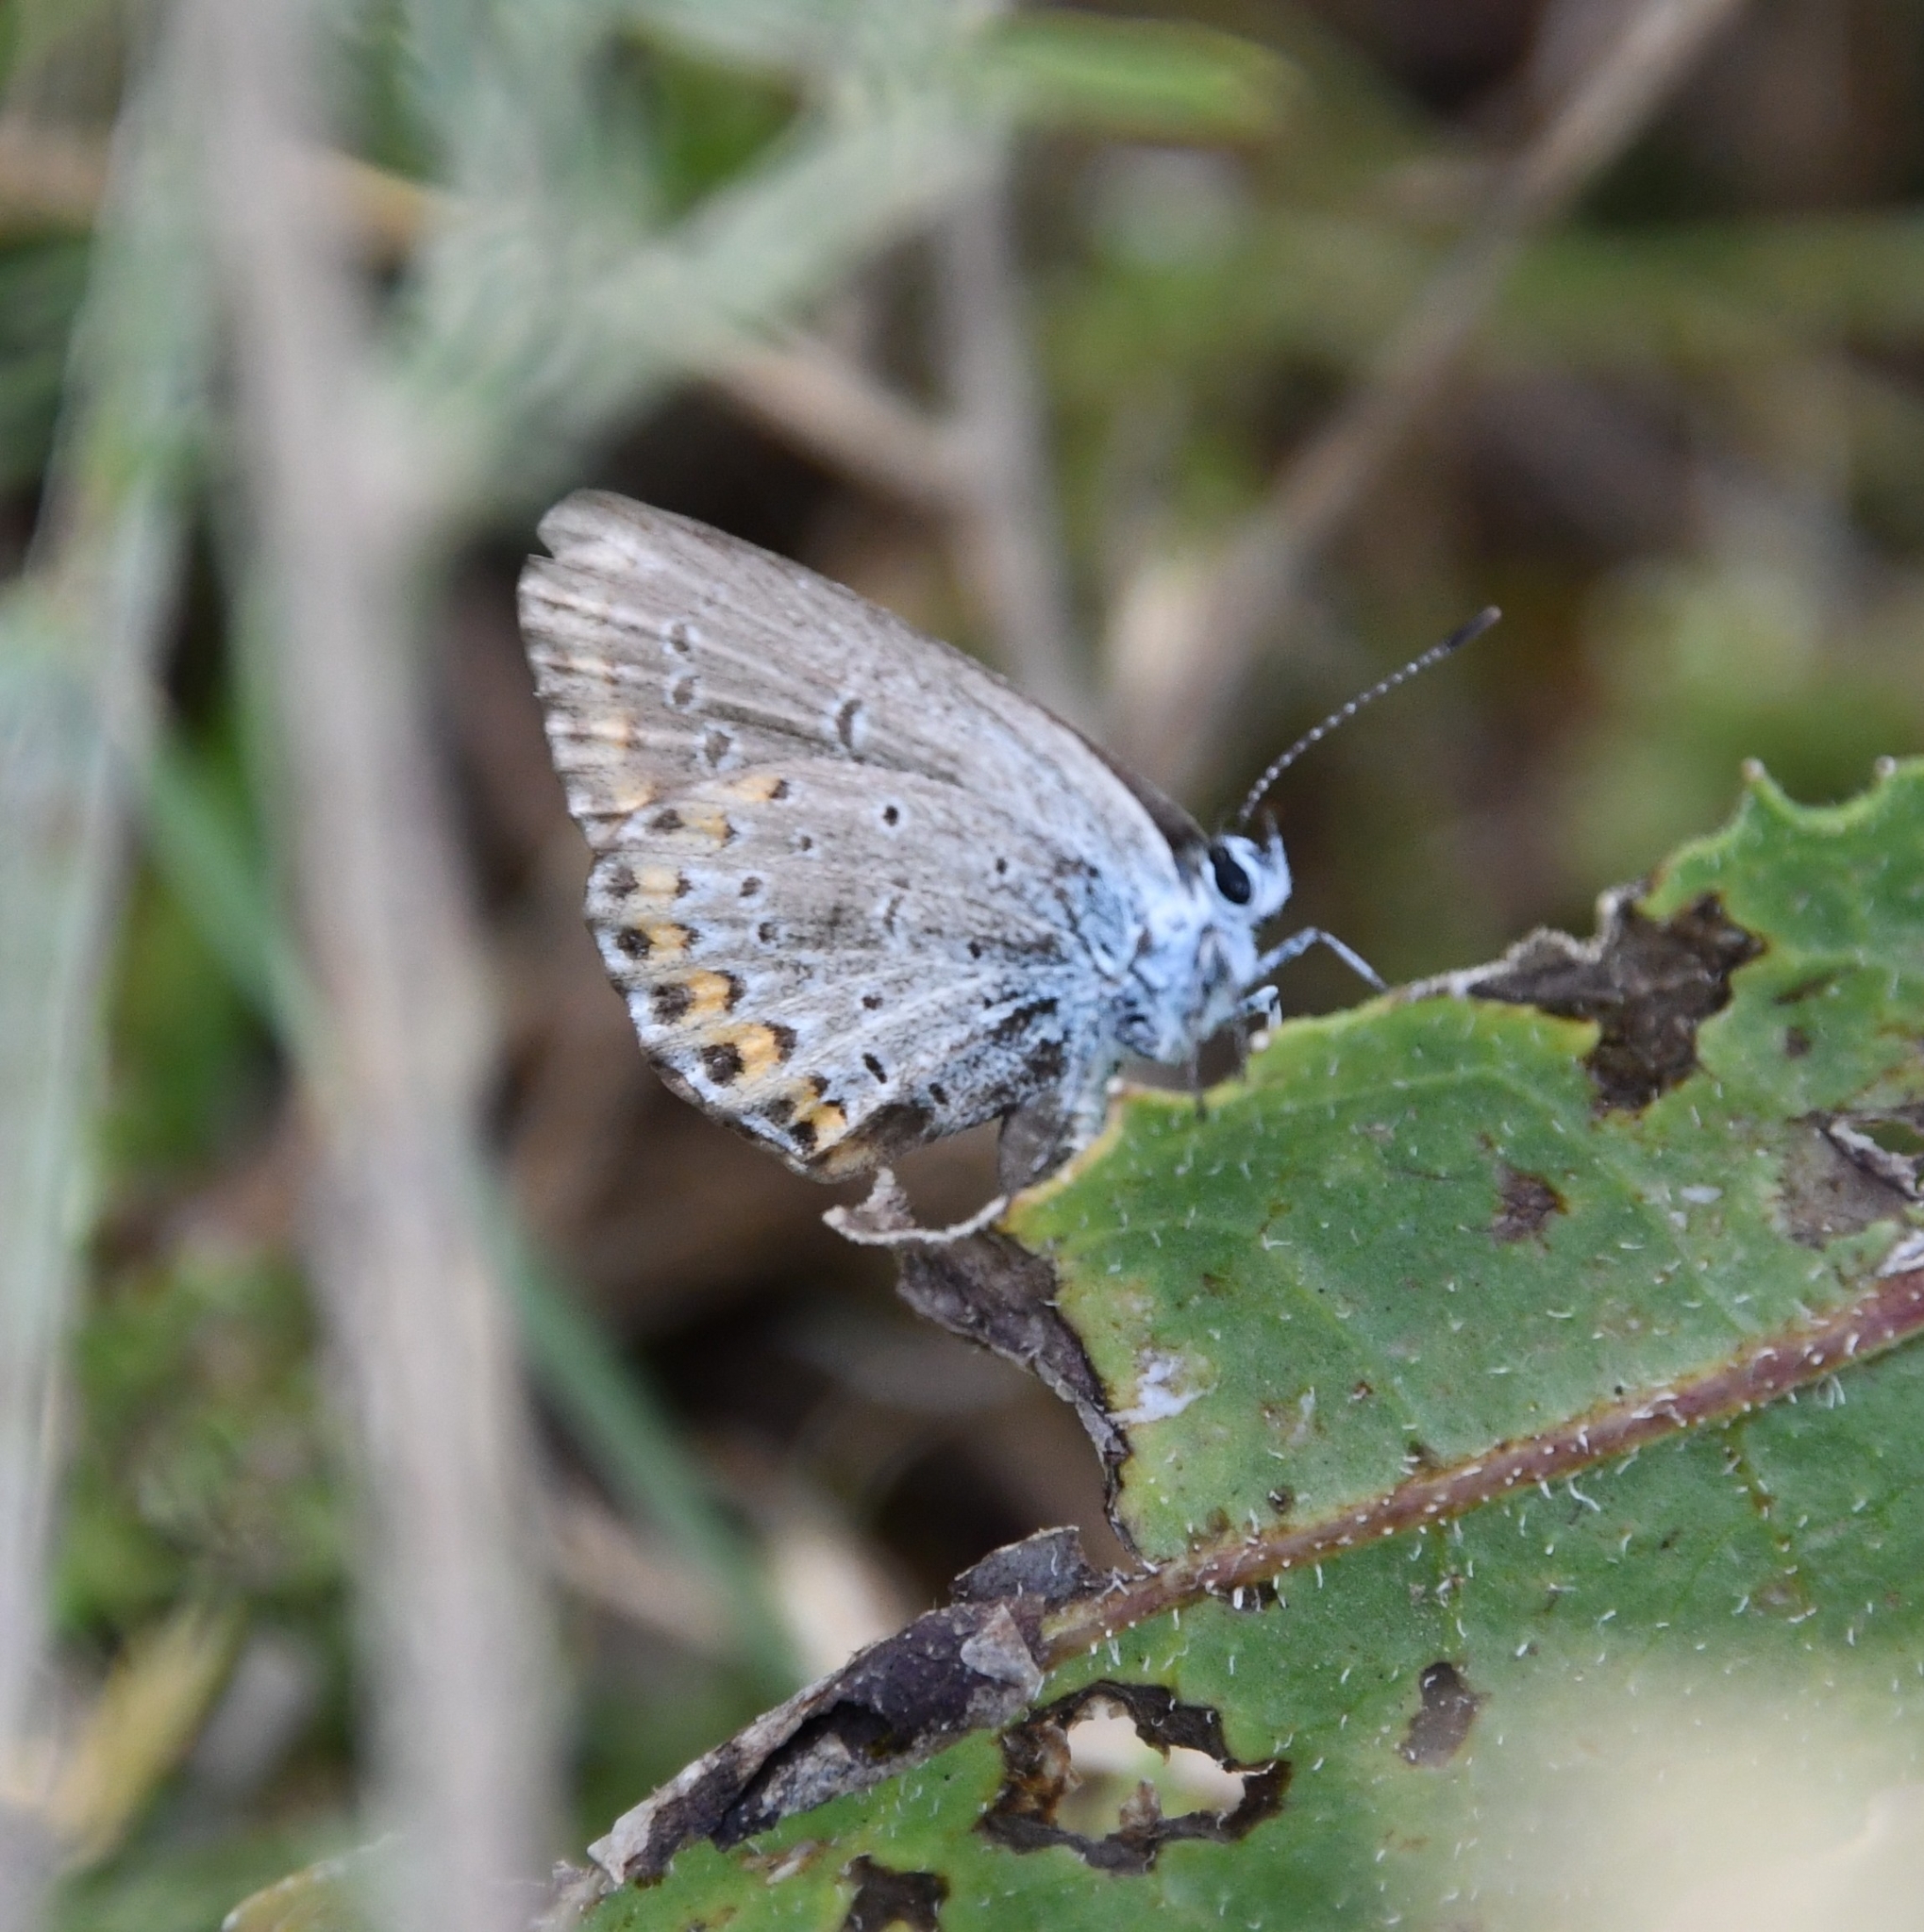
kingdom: Animalia
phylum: Arthropoda
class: Insecta
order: Lepidoptera
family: Lycaenidae
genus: Elkalyce
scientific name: Elkalyce argiades
